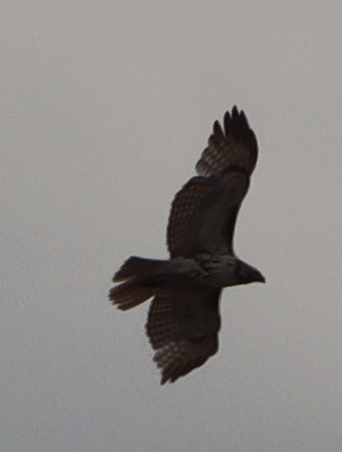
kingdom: Animalia
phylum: Chordata
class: Aves
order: Accipitriformes
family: Accipitridae
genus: Buteo
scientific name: Buteo jamaicensis
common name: Red-tailed hawk
